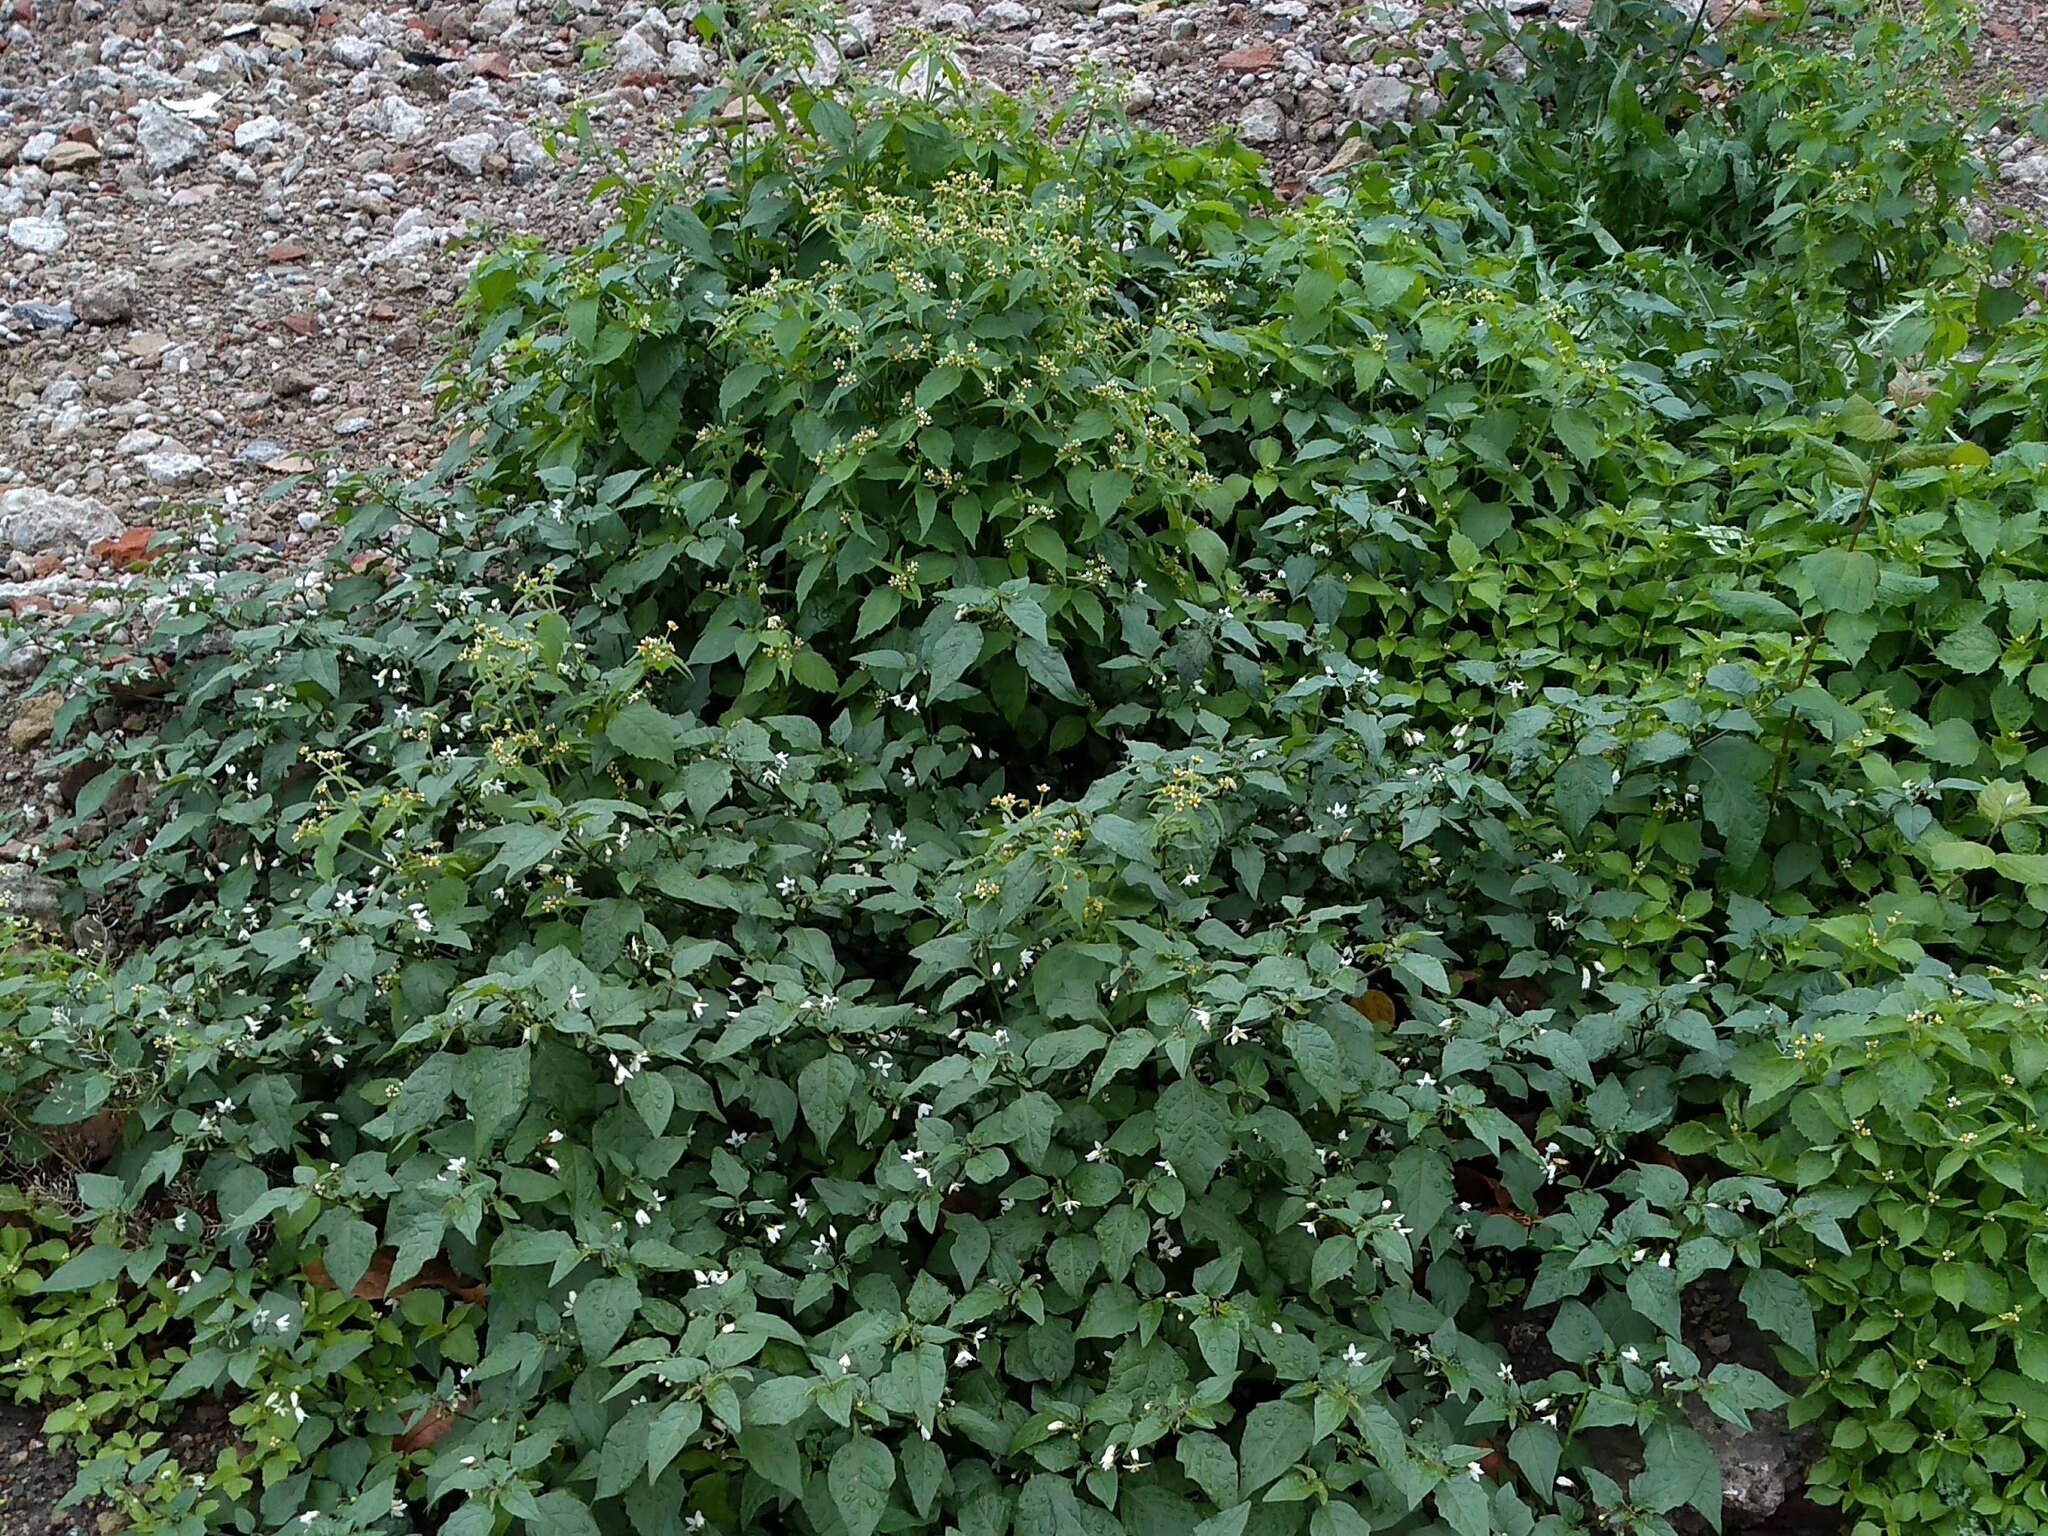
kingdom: Plantae
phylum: Tracheophyta
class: Magnoliopsida
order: Solanales
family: Solanaceae
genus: Solanum
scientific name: Solanum nigrum
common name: Black nightshade
